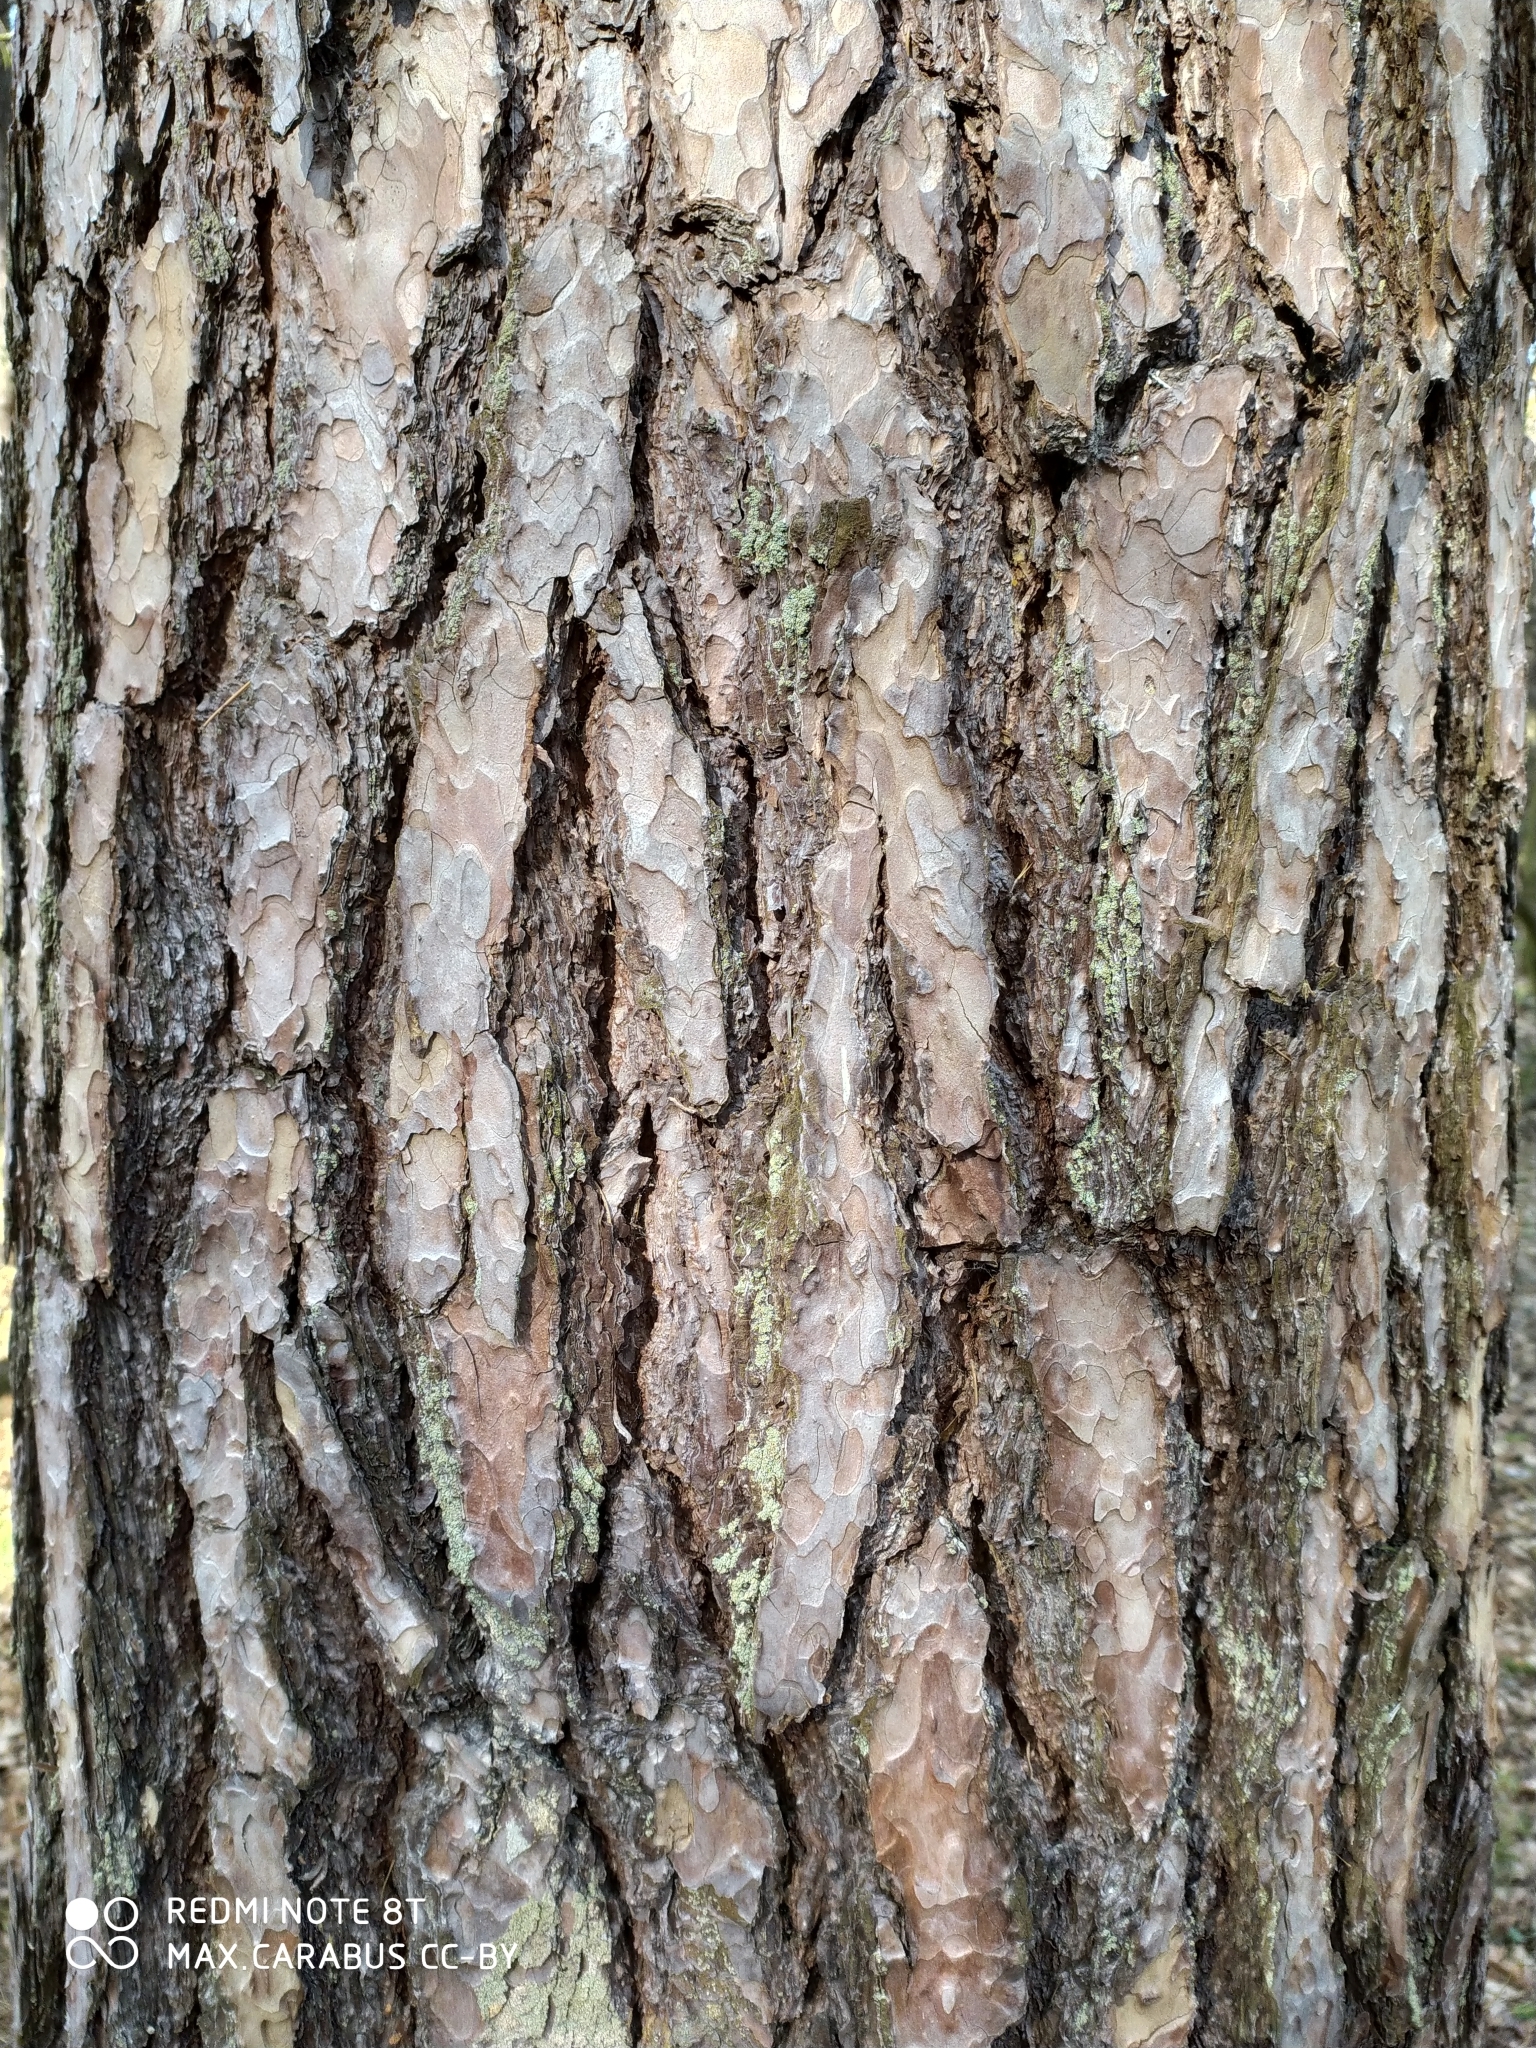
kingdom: Plantae
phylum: Tracheophyta
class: Pinopsida
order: Pinales
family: Pinaceae
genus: Pinus
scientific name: Pinus sylvestris
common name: Scots pine
